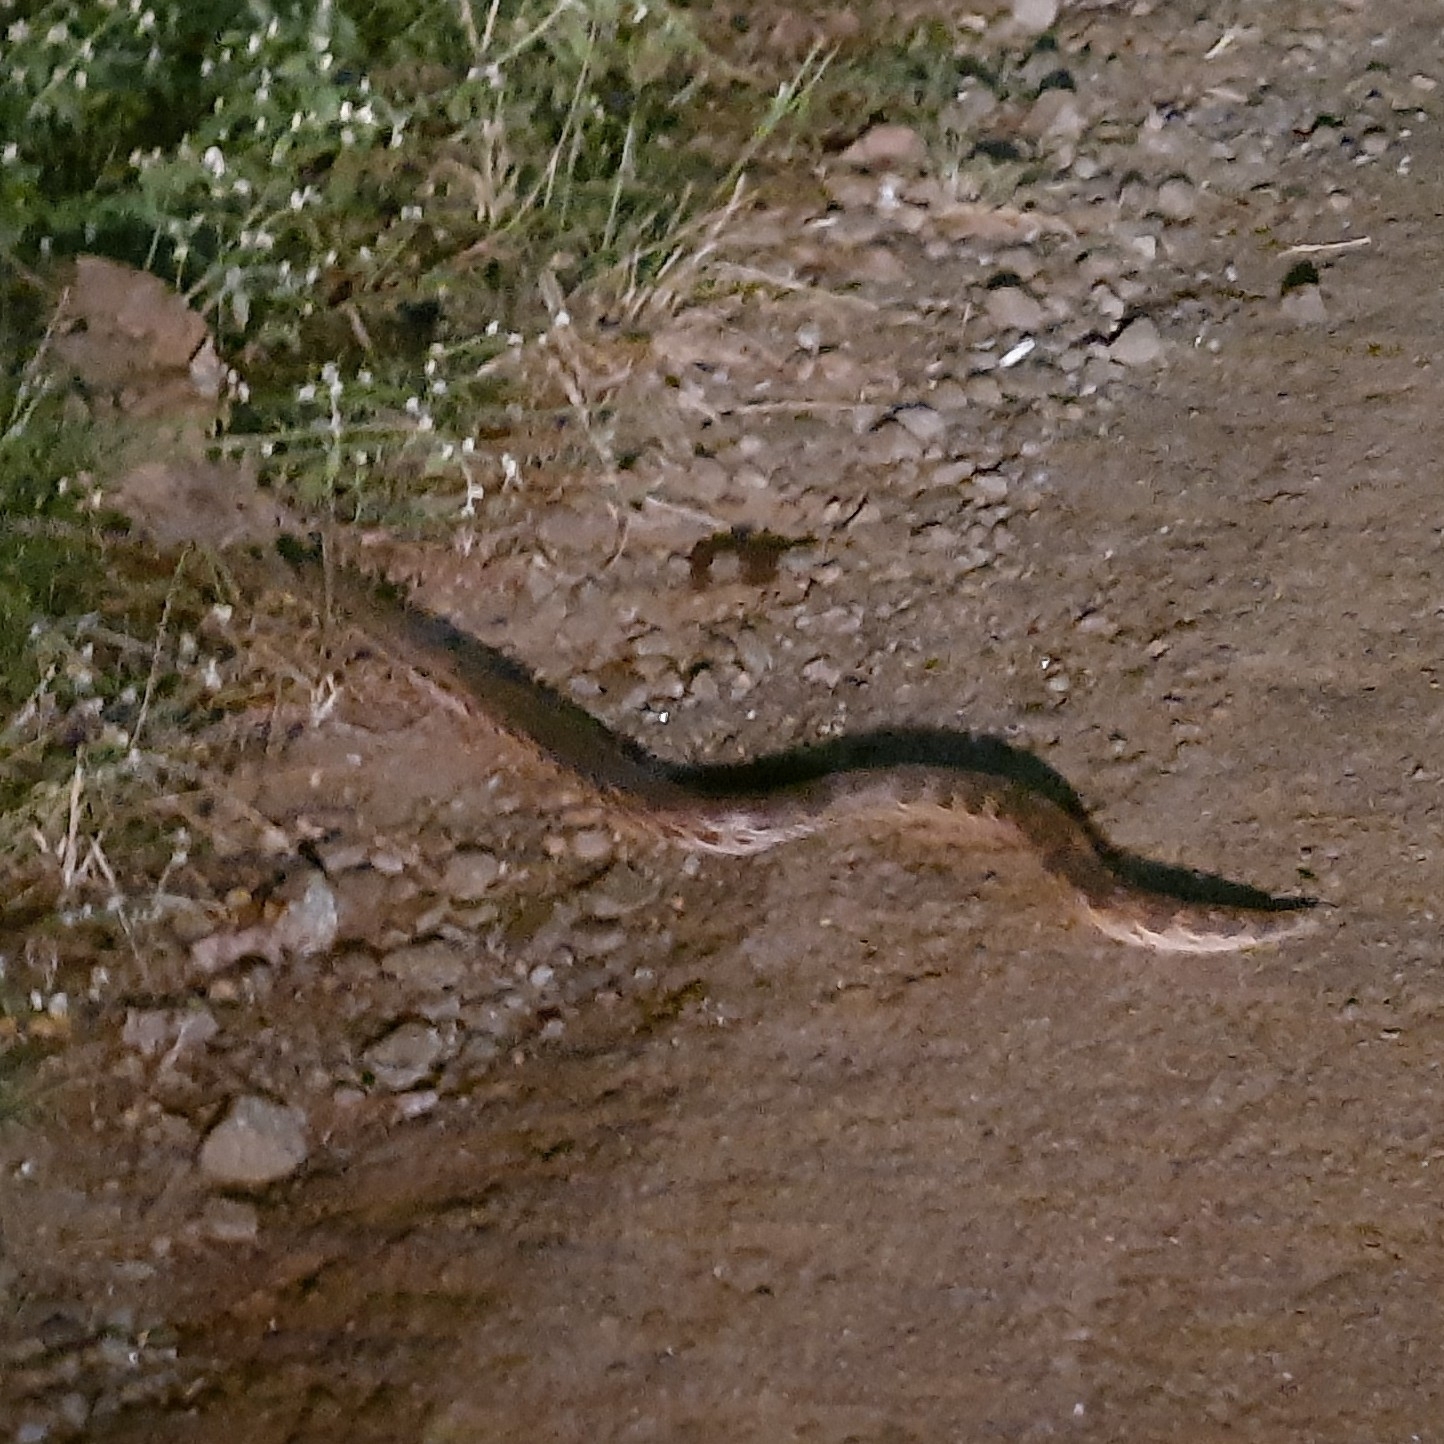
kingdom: Animalia
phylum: Chordata
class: Squamata
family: Boidae
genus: Eryx
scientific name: Eryx conicus
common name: Rough-tailed sand boa
